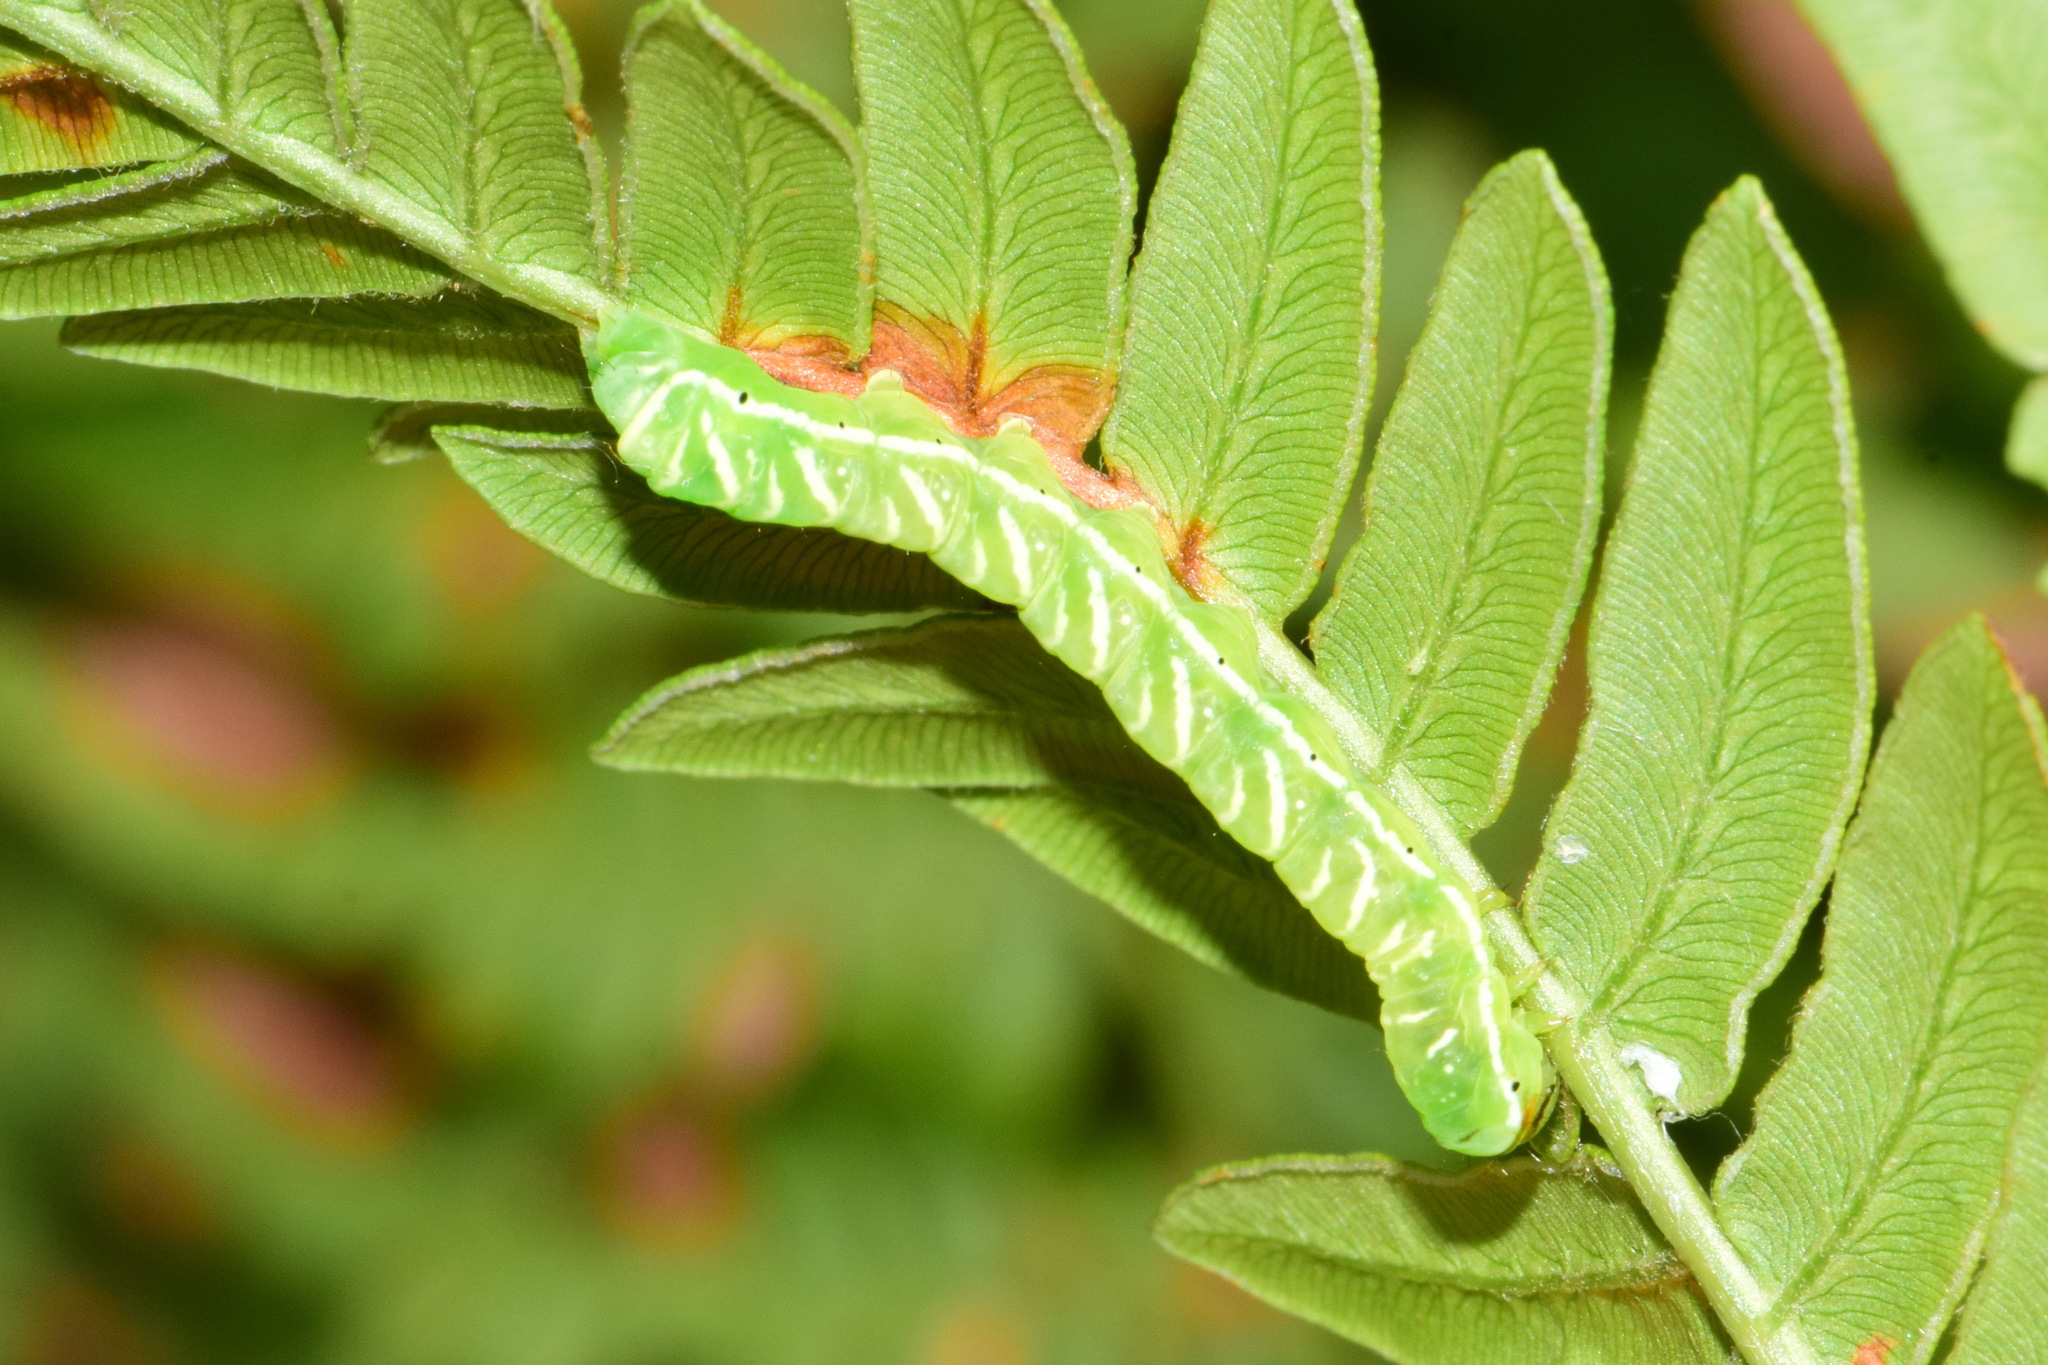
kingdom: Animalia
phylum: Arthropoda
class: Insecta
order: Lepidoptera
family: Noctuidae
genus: Callopistria
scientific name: Callopistria juventina
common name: Latin
